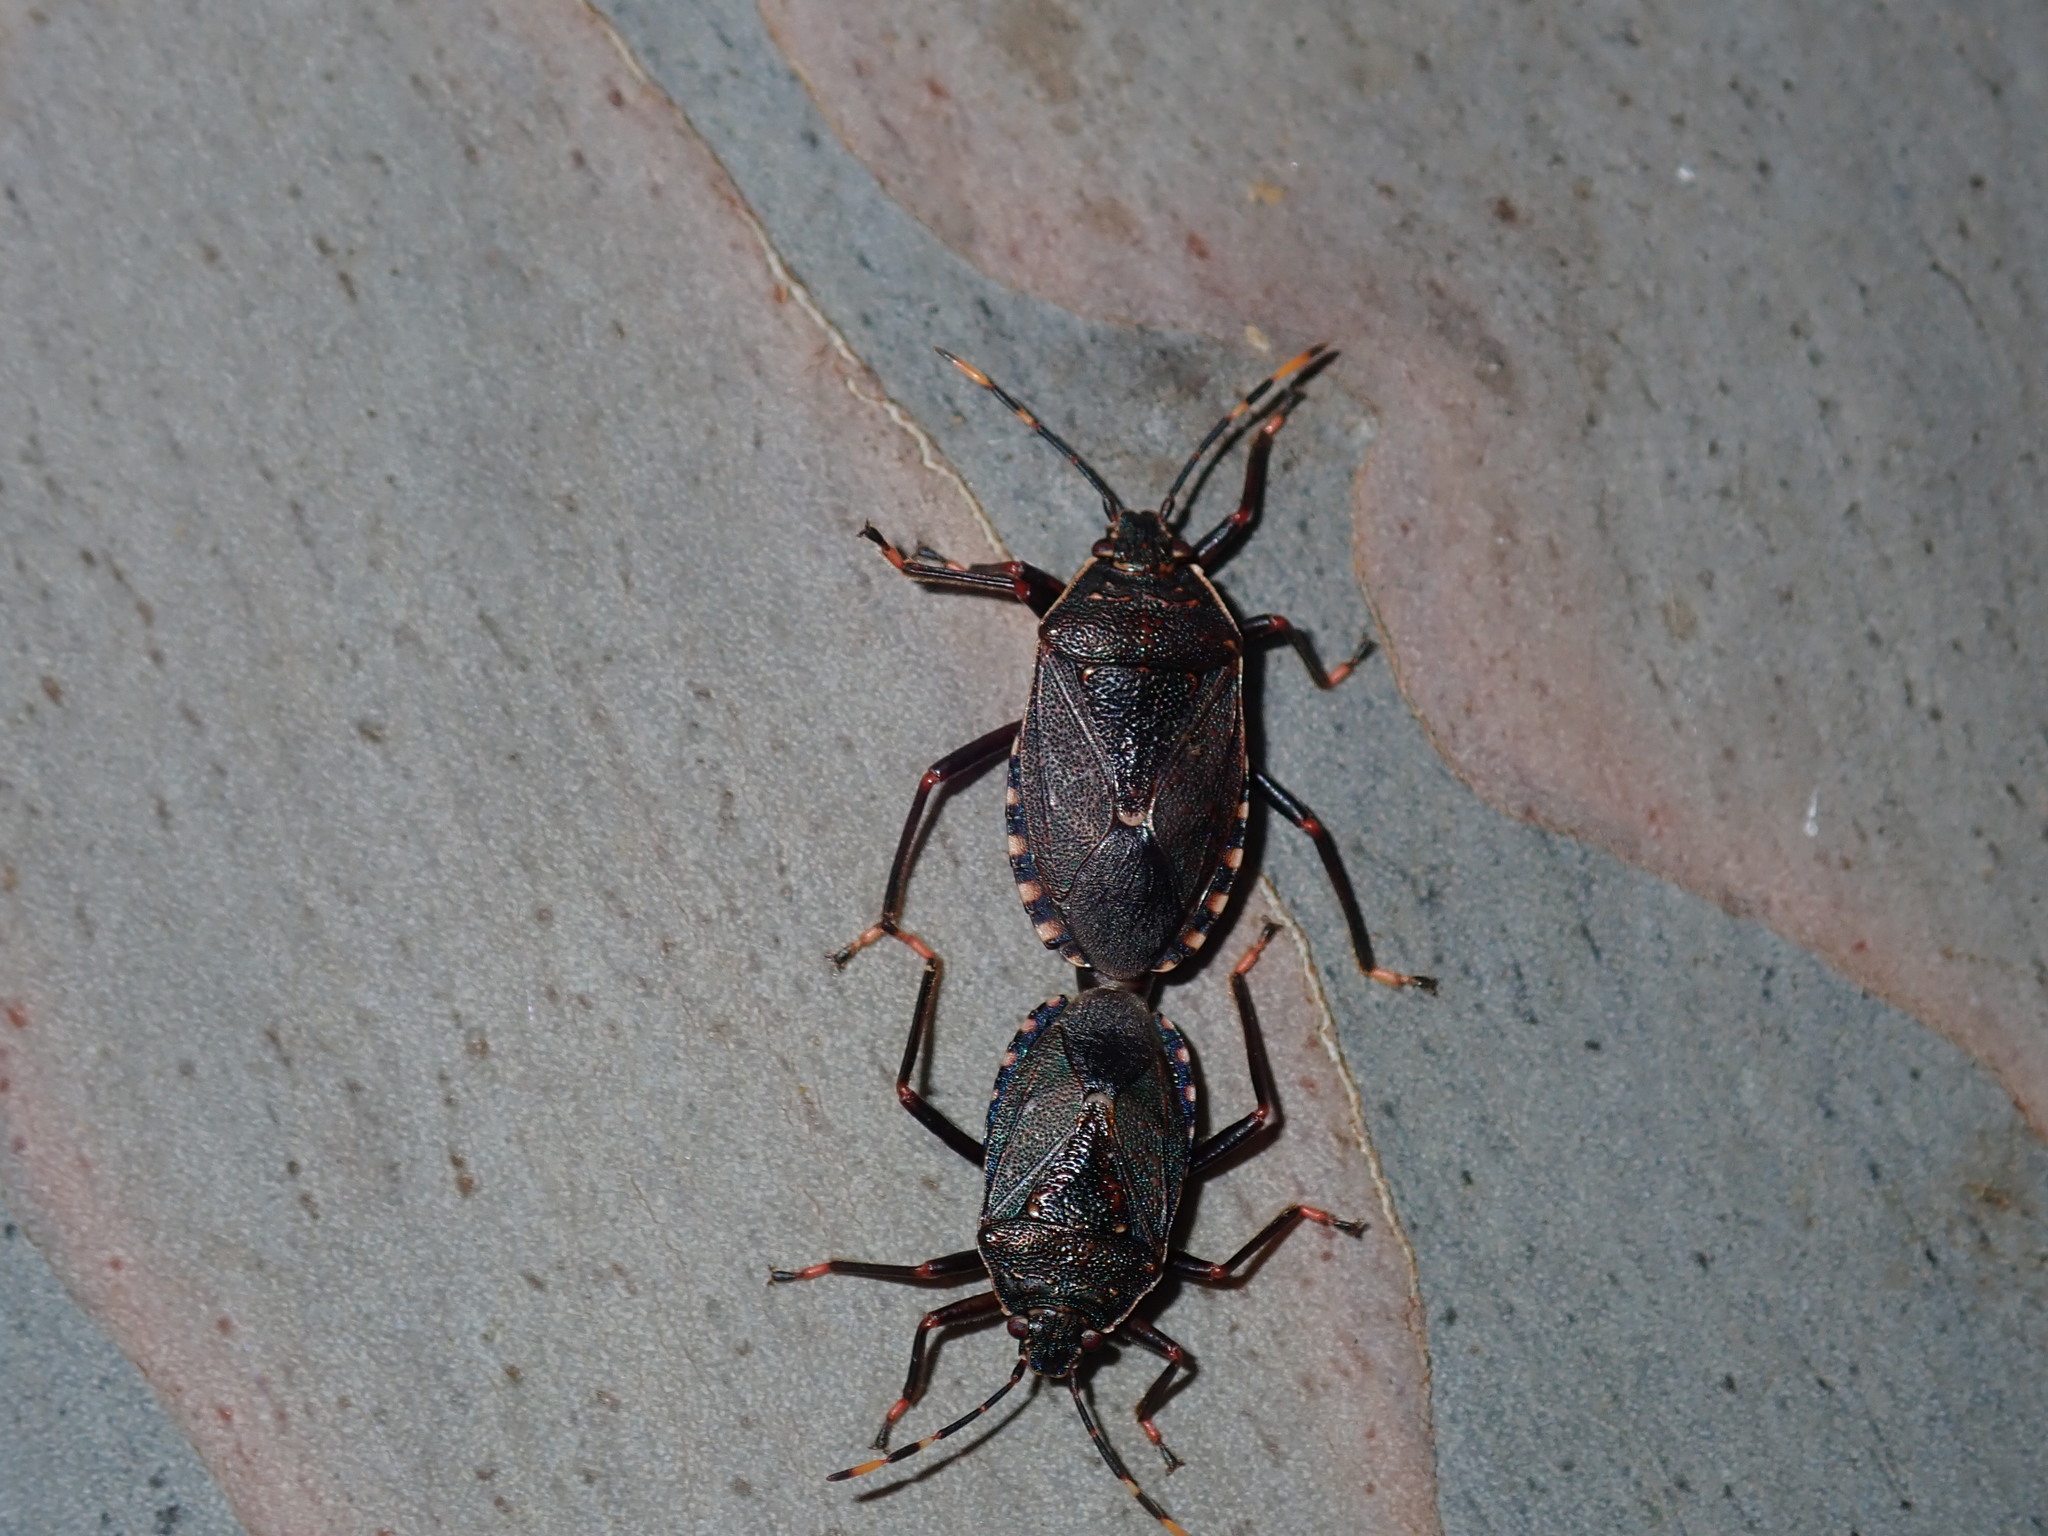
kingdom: Animalia
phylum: Arthropoda
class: Insecta
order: Hemiptera
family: Pentatomidae
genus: Notius
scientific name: Notius
